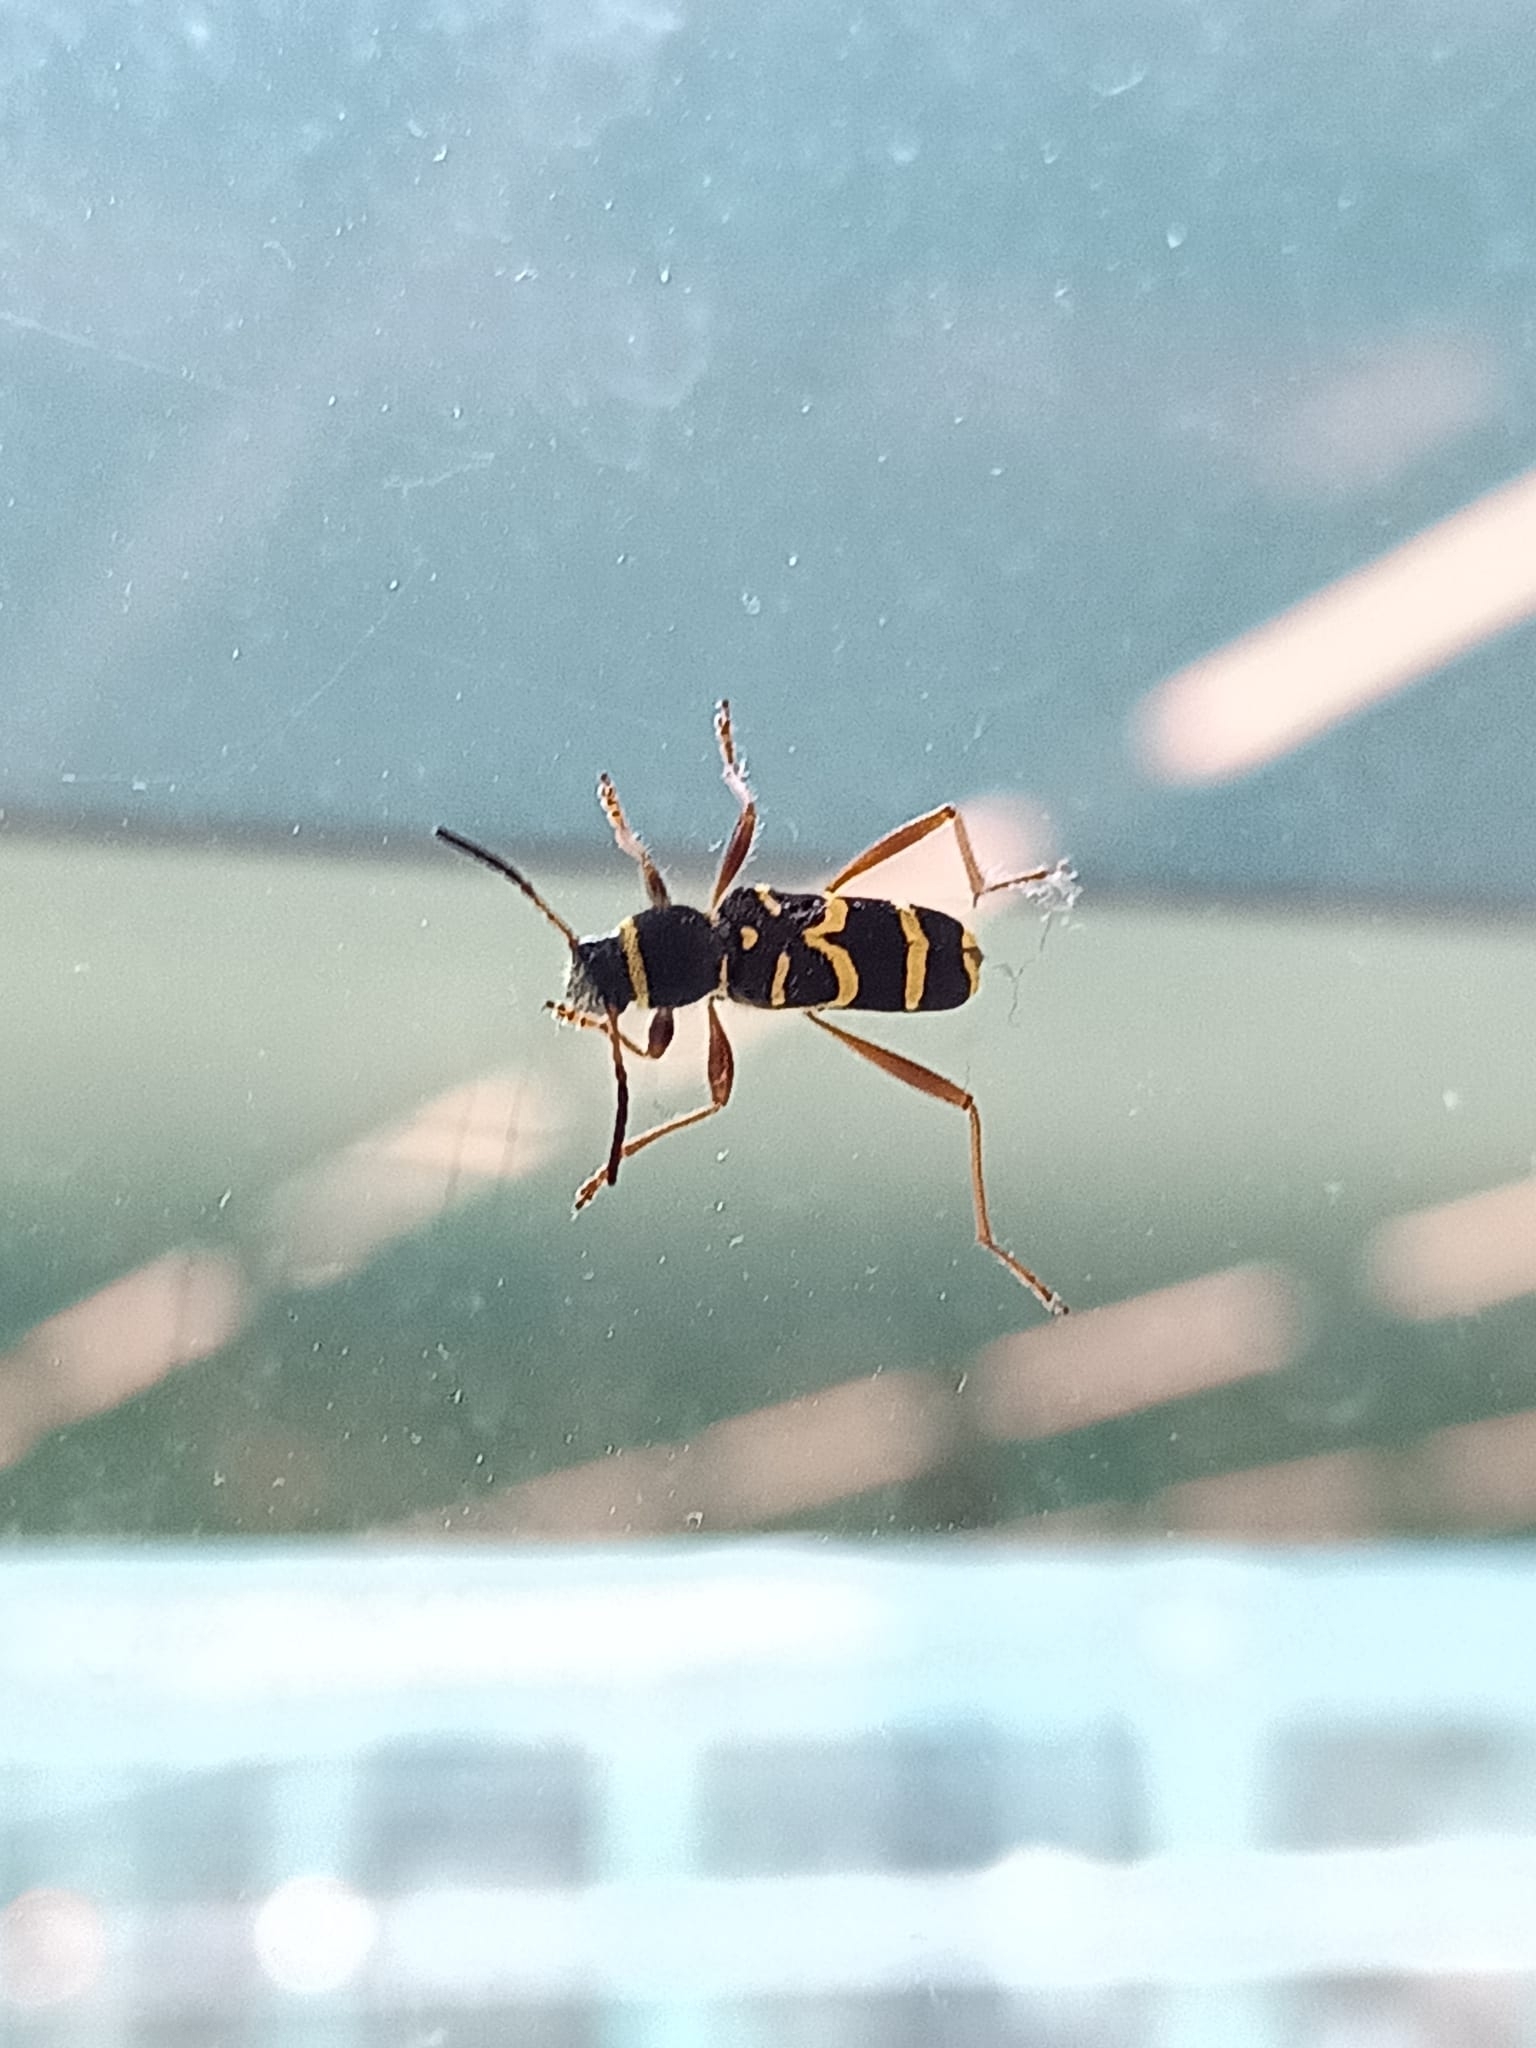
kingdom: Animalia
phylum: Arthropoda
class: Insecta
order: Coleoptera
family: Cerambycidae
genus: Clytus
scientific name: Clytus arietis
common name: Wasp beetle
